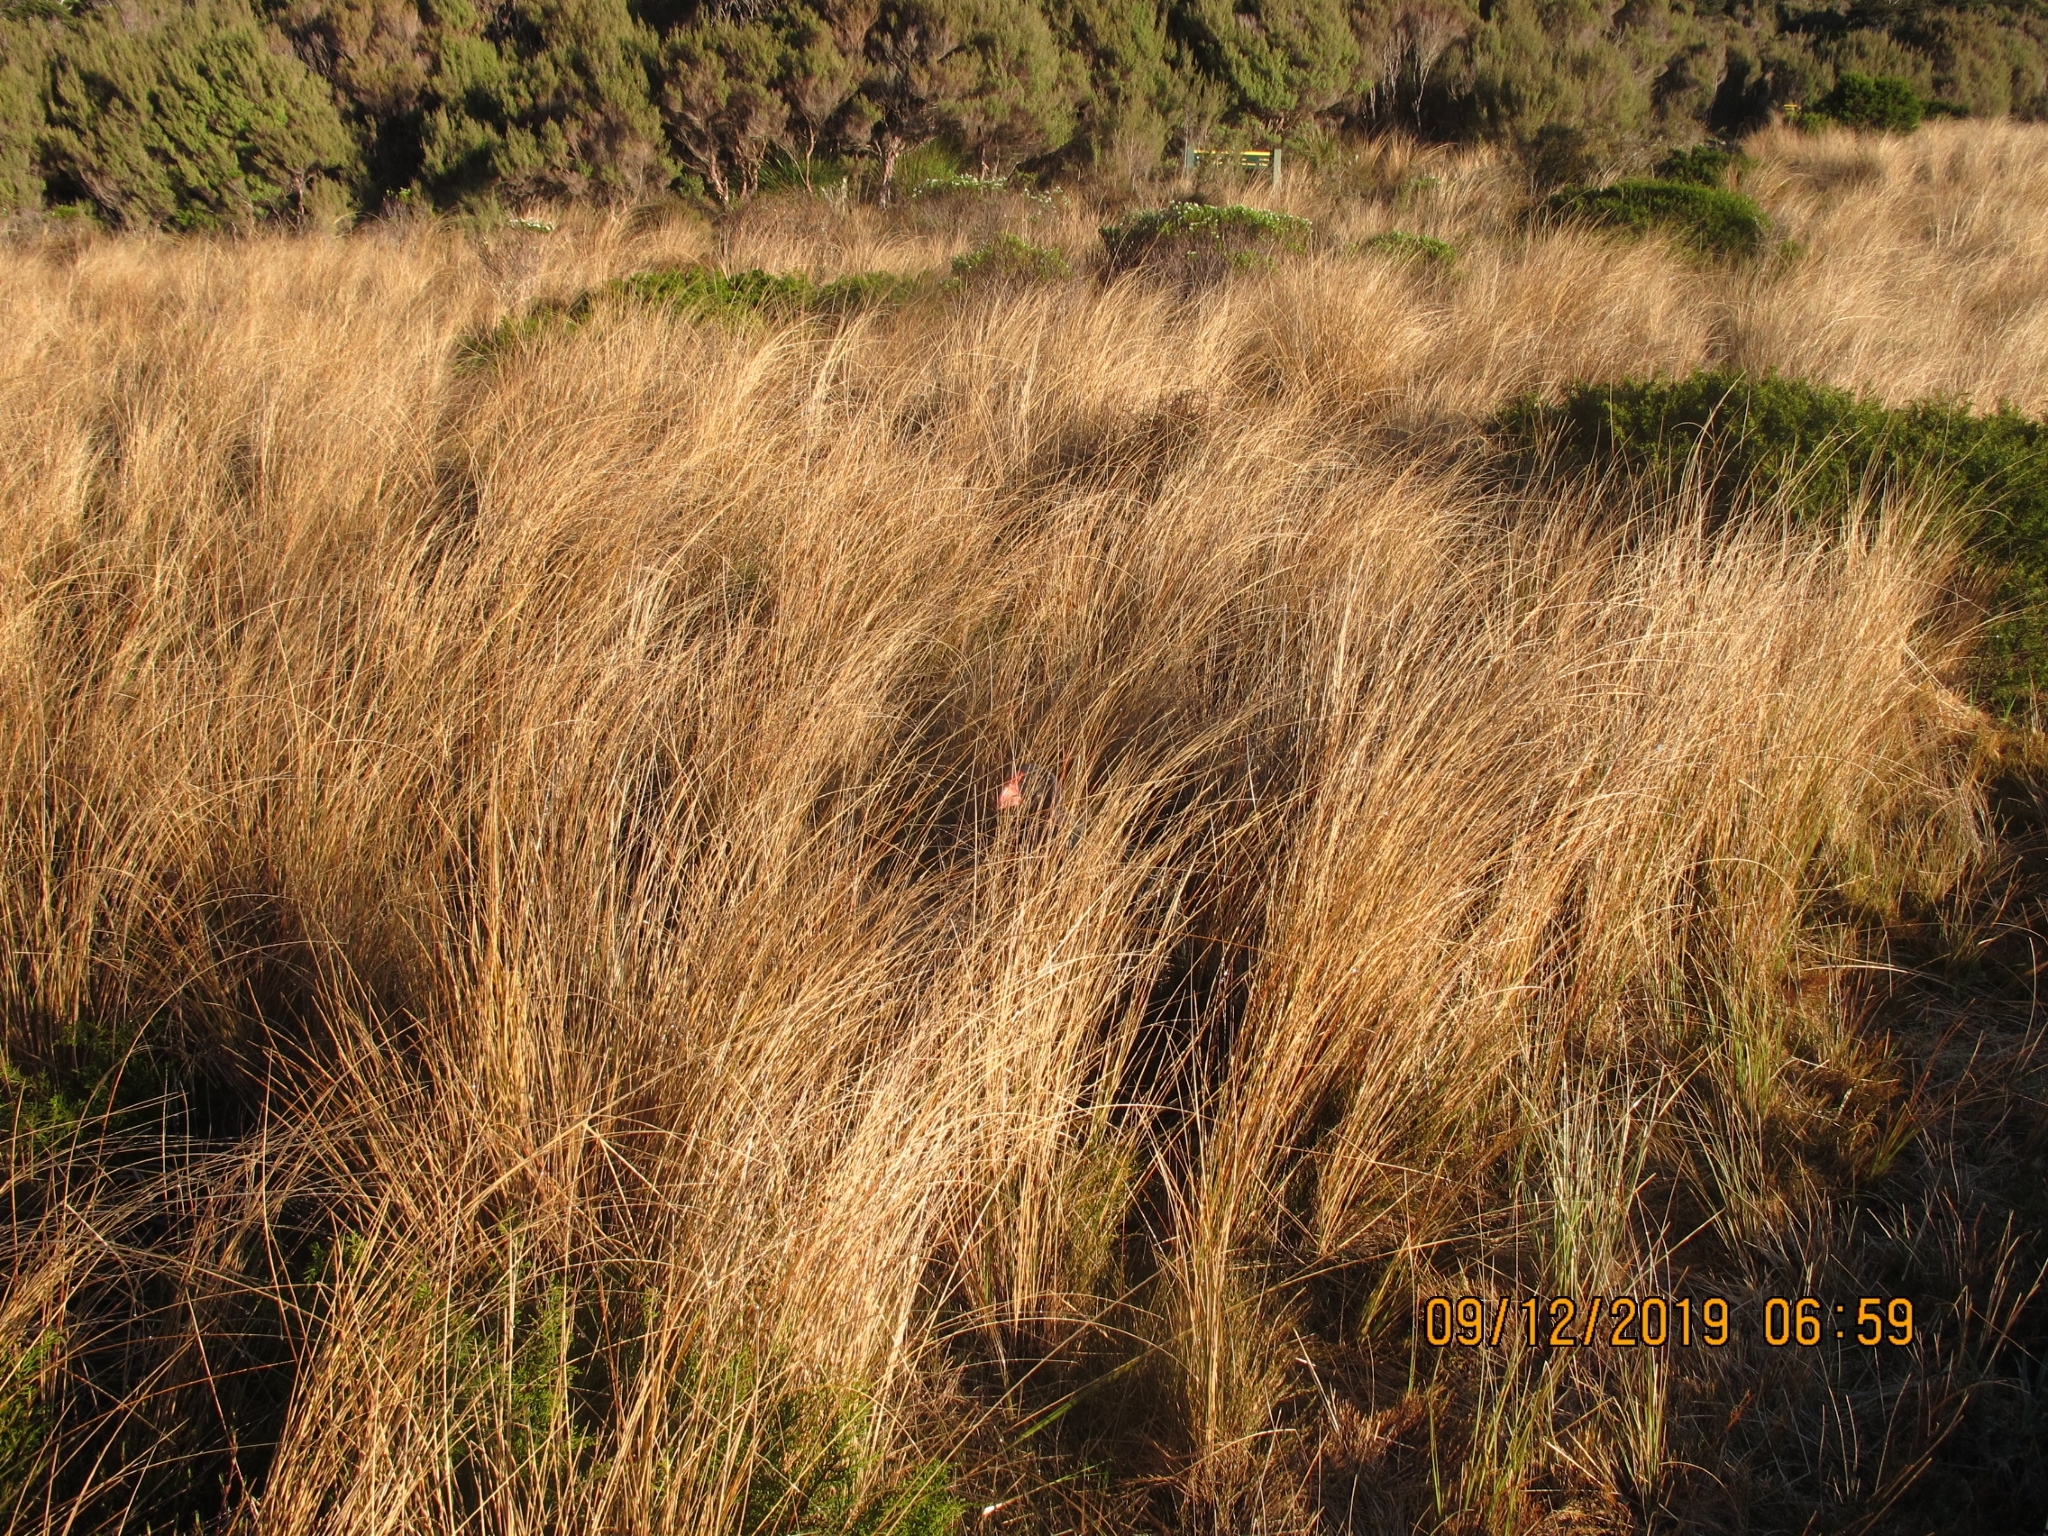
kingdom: Plantae
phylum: Tracheophyta
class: Liliopsida
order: Poales
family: Poaceae
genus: Chionochloa
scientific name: Chionochloa rubra
